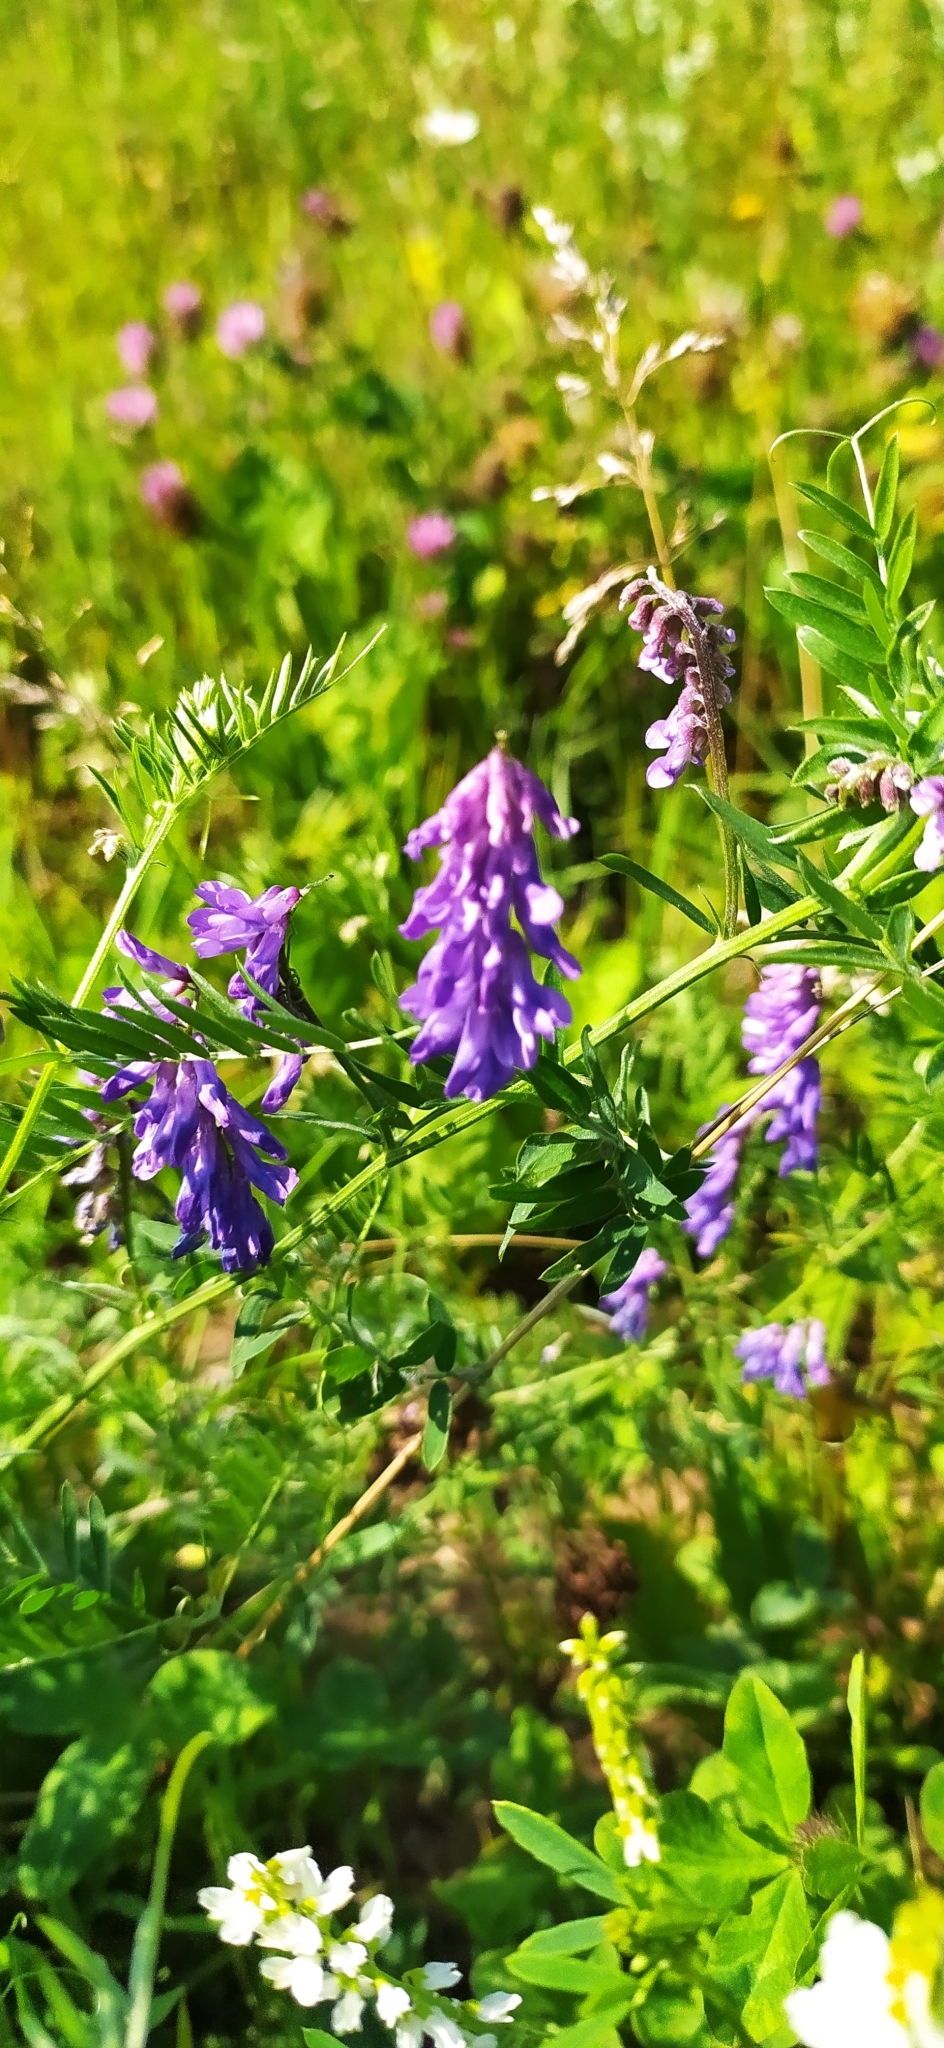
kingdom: Plantae
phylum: Tracheophyta
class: Magnoliopsida
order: Fabales
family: Fabaceae
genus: Vicia
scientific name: Vicia cracca
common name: Bird vetch
